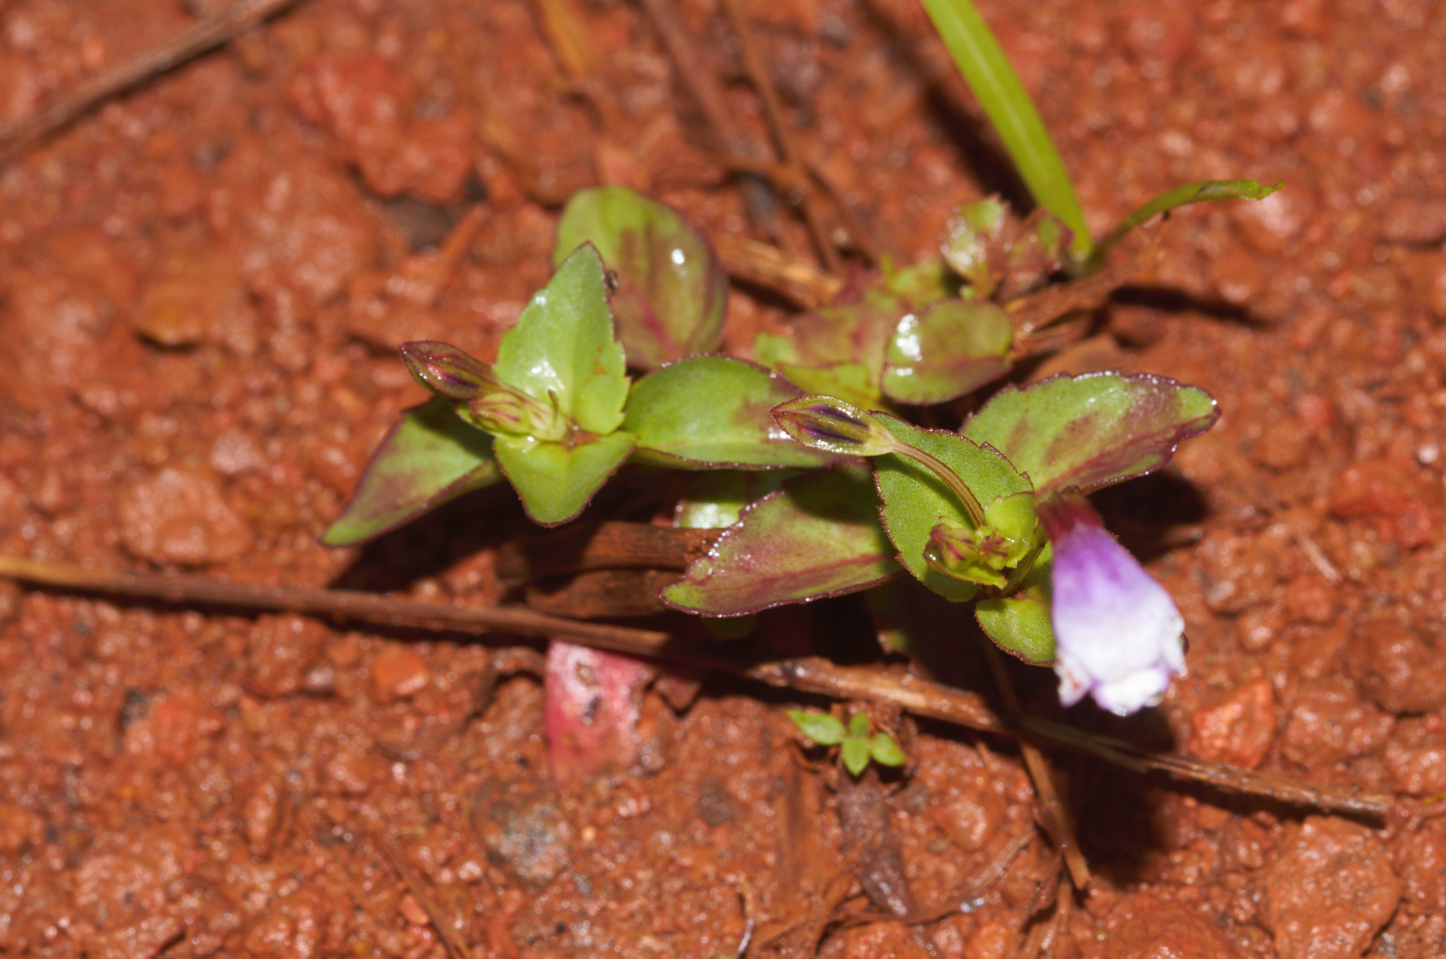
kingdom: Plantae
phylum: Tracheophyta
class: Magnoliopsida
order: Lamiales
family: Linderniaceae
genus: Torenia
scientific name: Torenia crustacea
